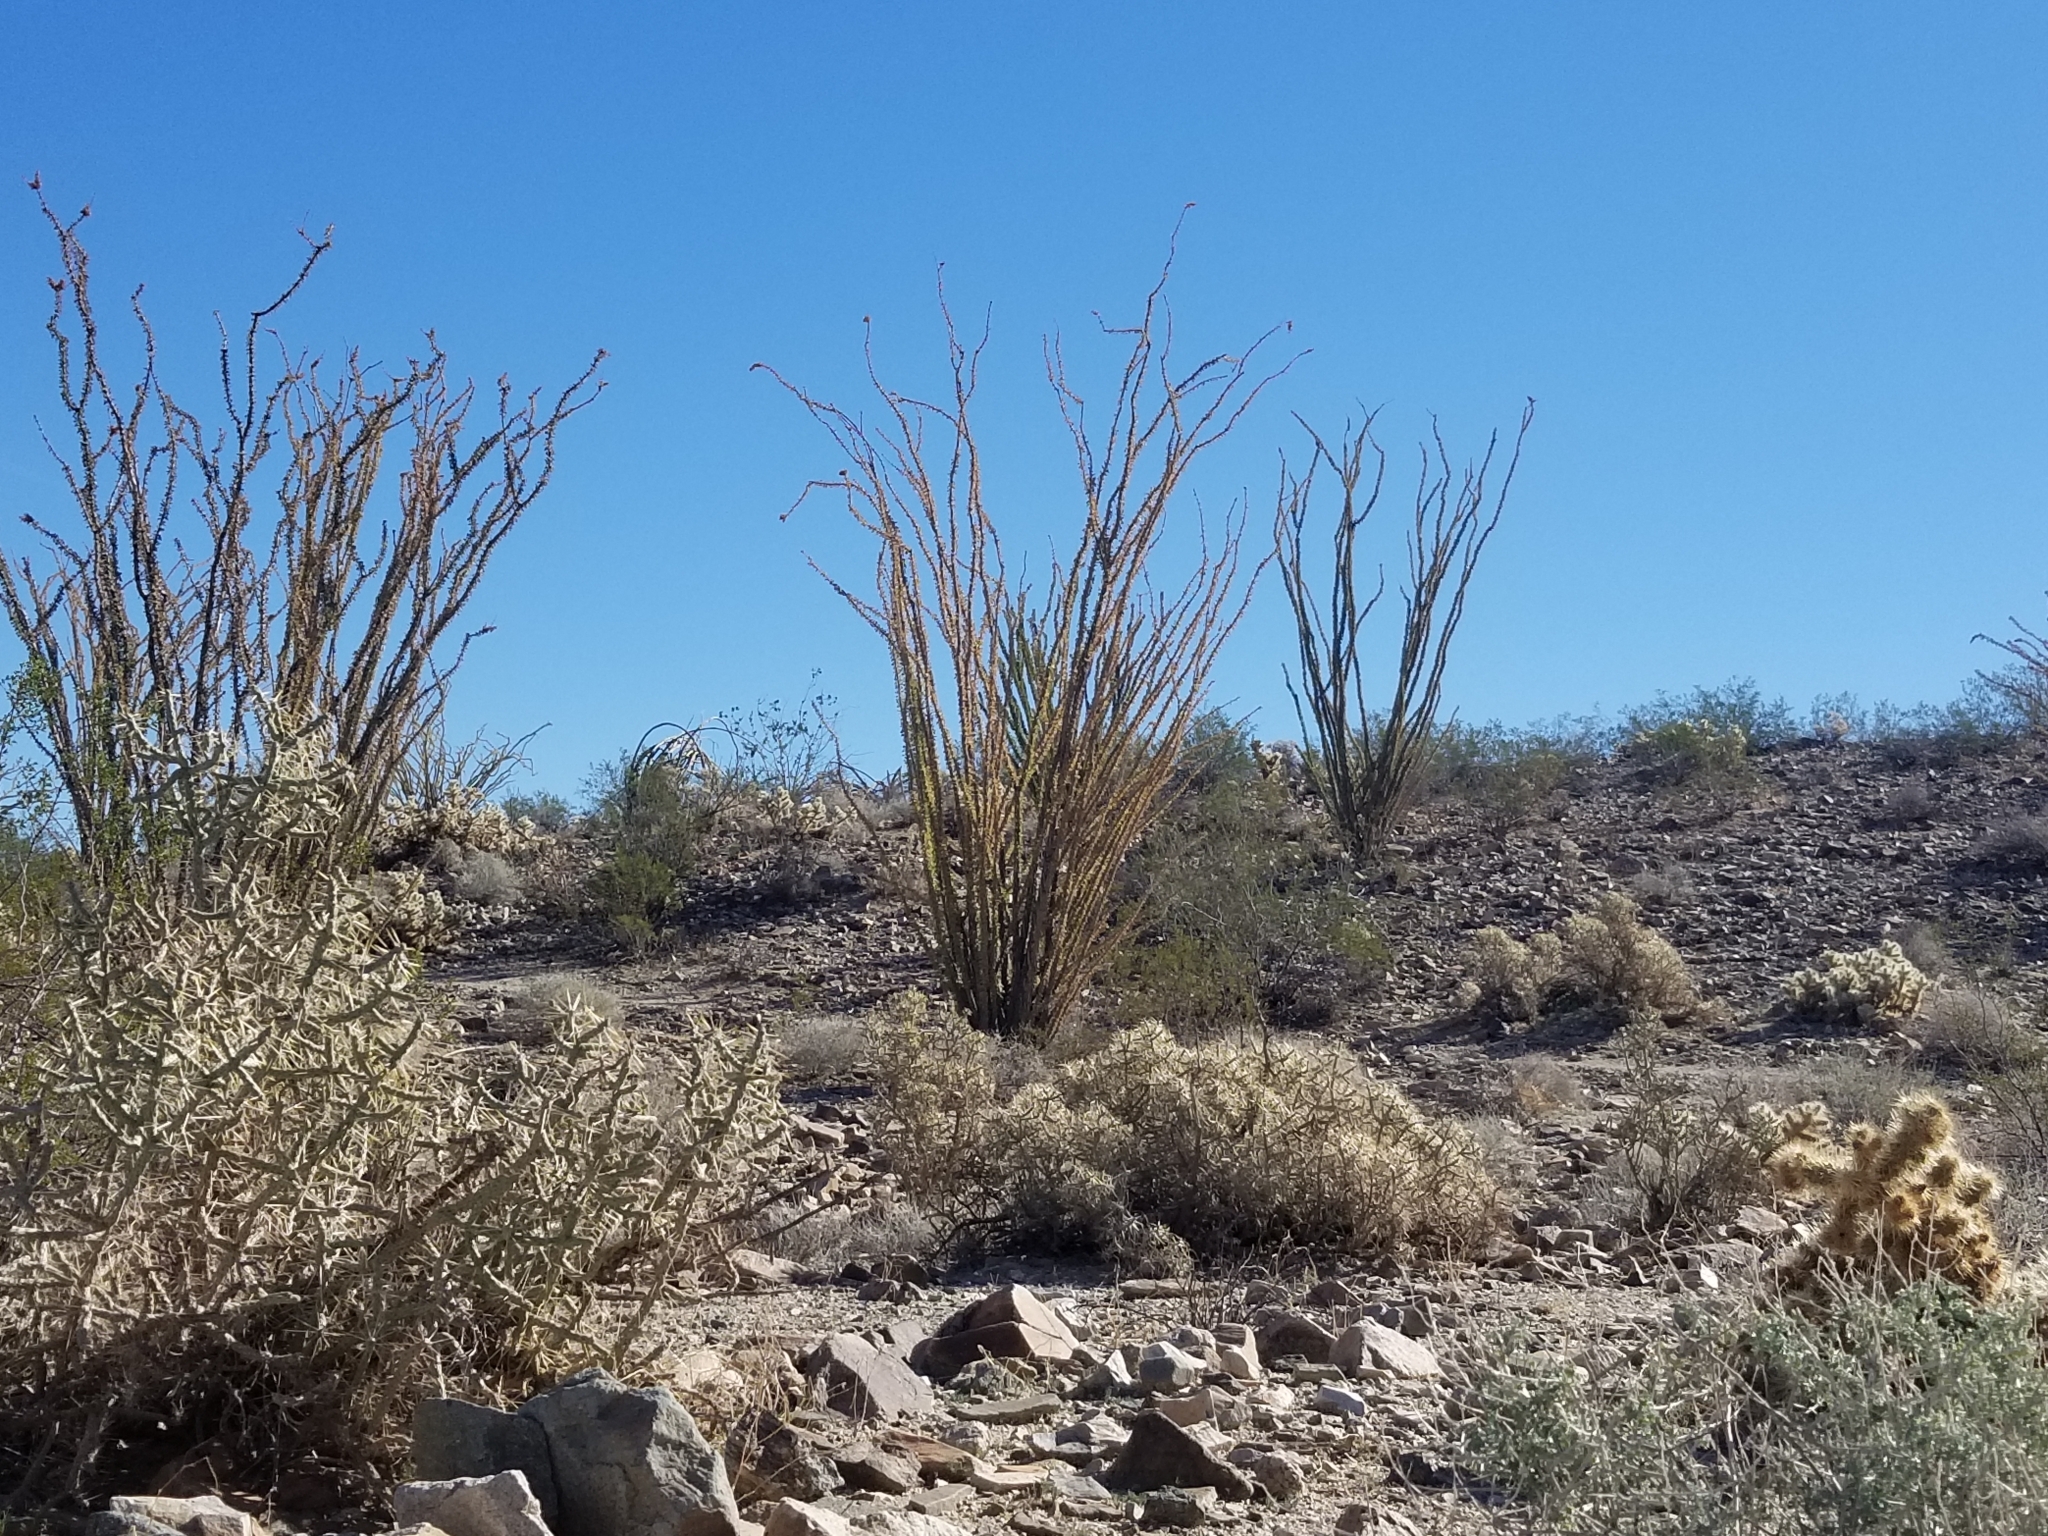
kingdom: Plantae
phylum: Tracheophyta
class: Magnoliopsida
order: Ericales
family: Fouquieriaceae
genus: Fouquieria
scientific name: Fouquieria splendens
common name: Vine-cactus
